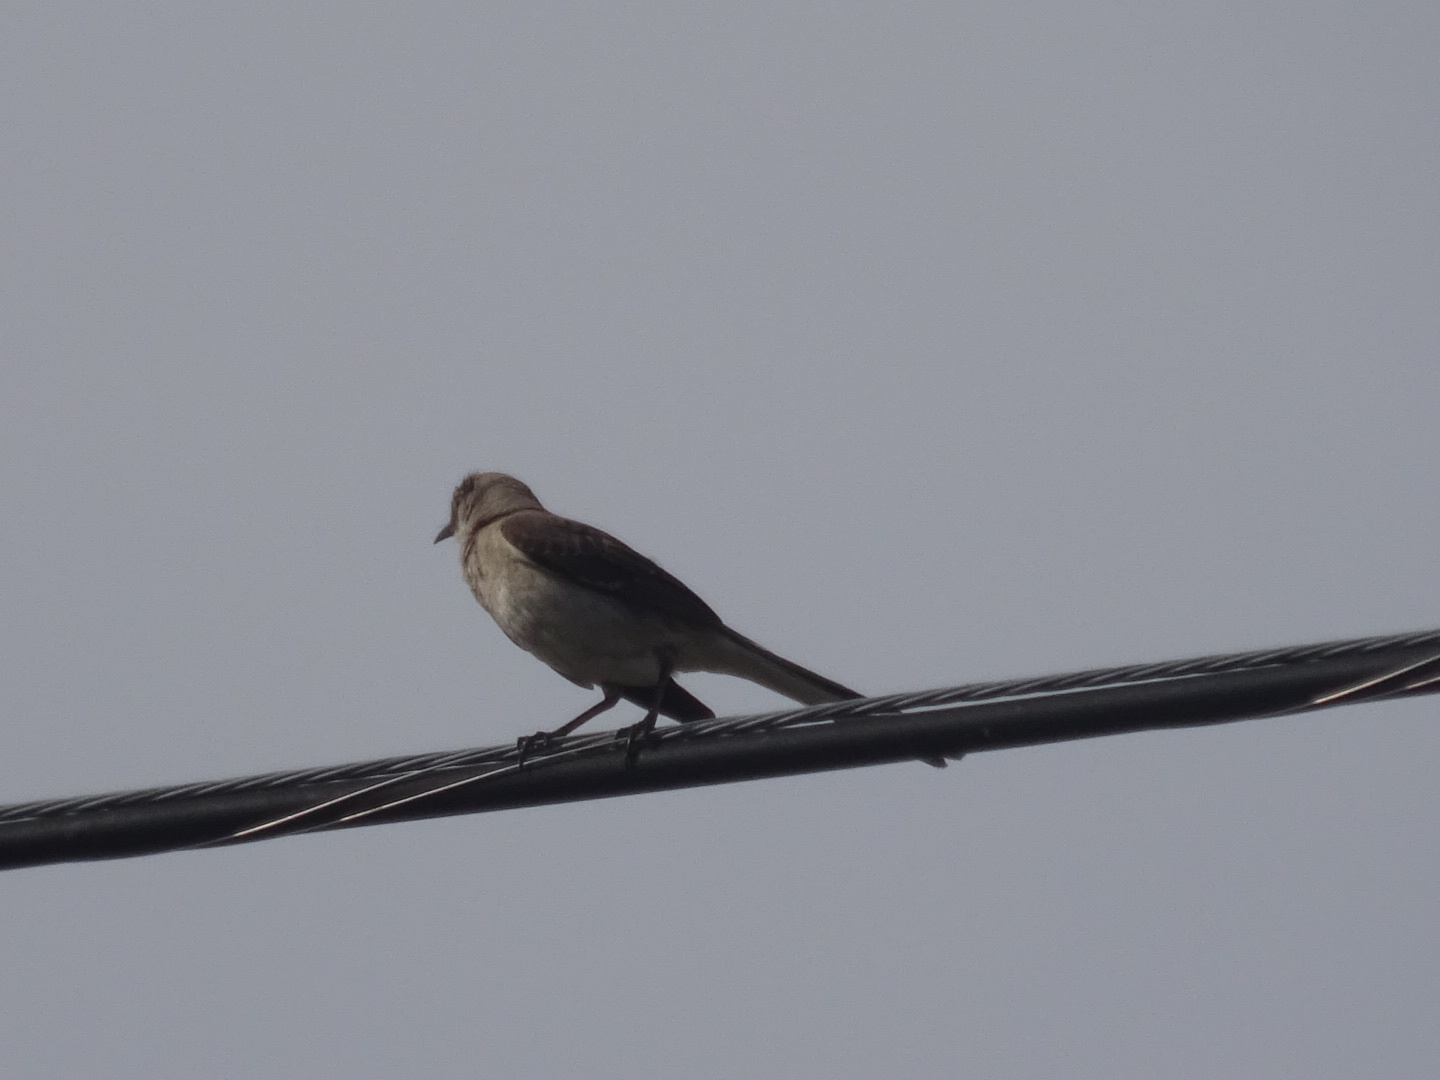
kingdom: Animalia
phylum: Chordata
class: Aves
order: Passeriformes
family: Mimidae
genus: Mimus
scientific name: Mimus polyglottos
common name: Northern mockingbird
